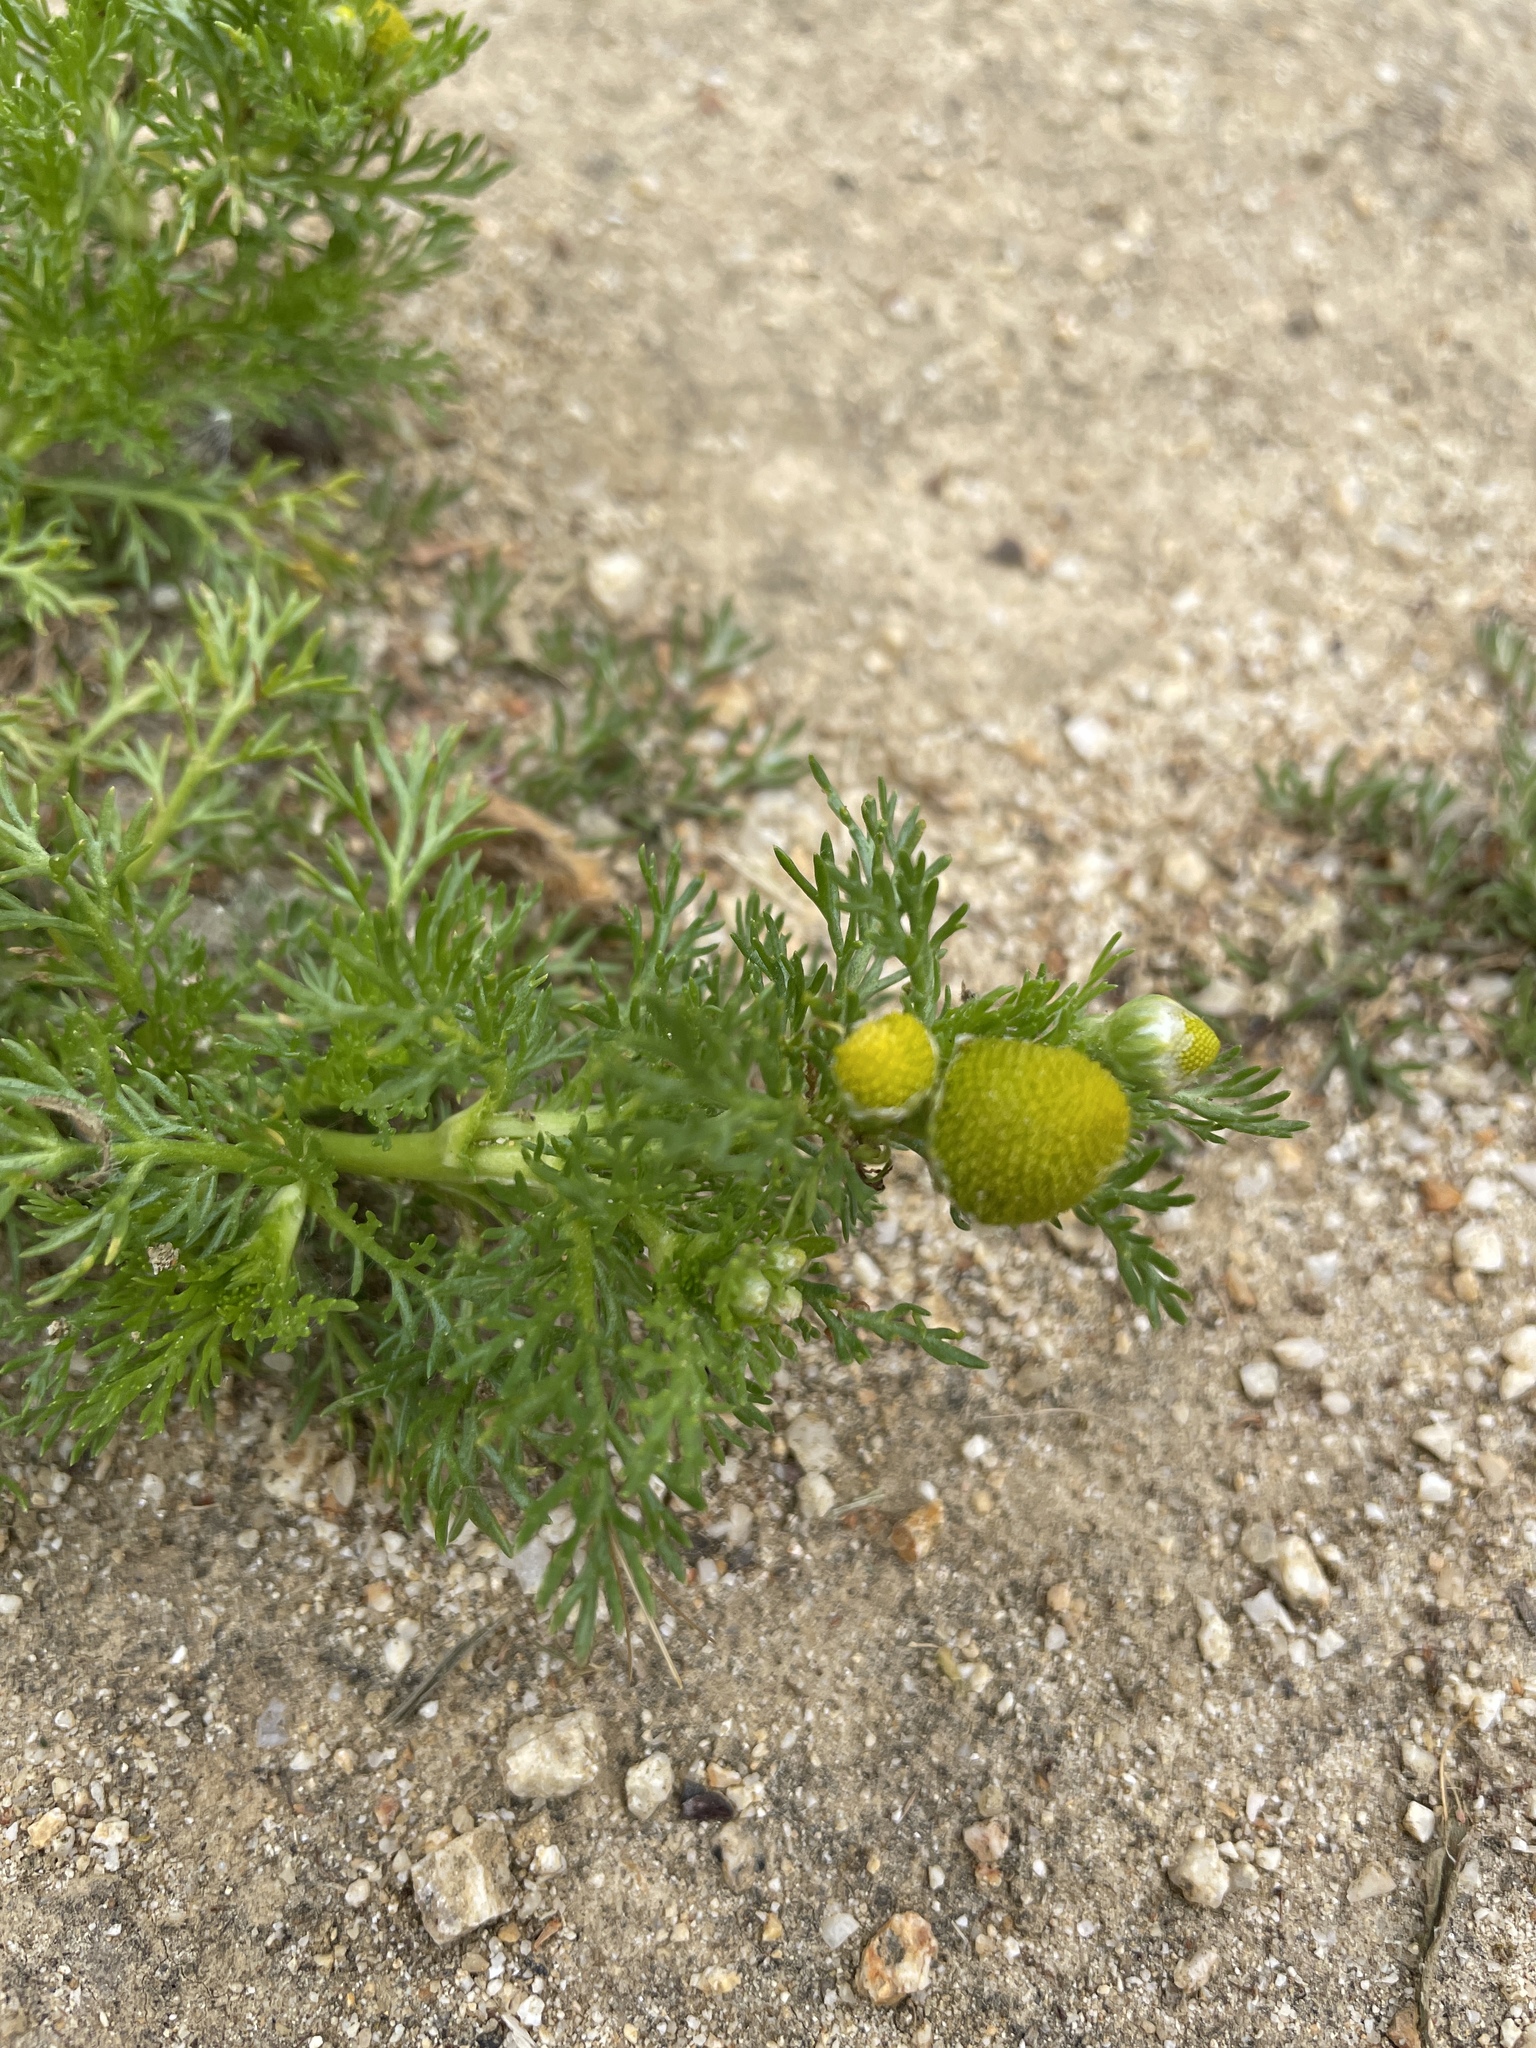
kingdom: Plantae
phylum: Tracheophyta
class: Magnoliopsida
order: Asterales
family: Asteraceae
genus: Matricaria
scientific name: Matricaria discoidea
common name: Disc mayweed
